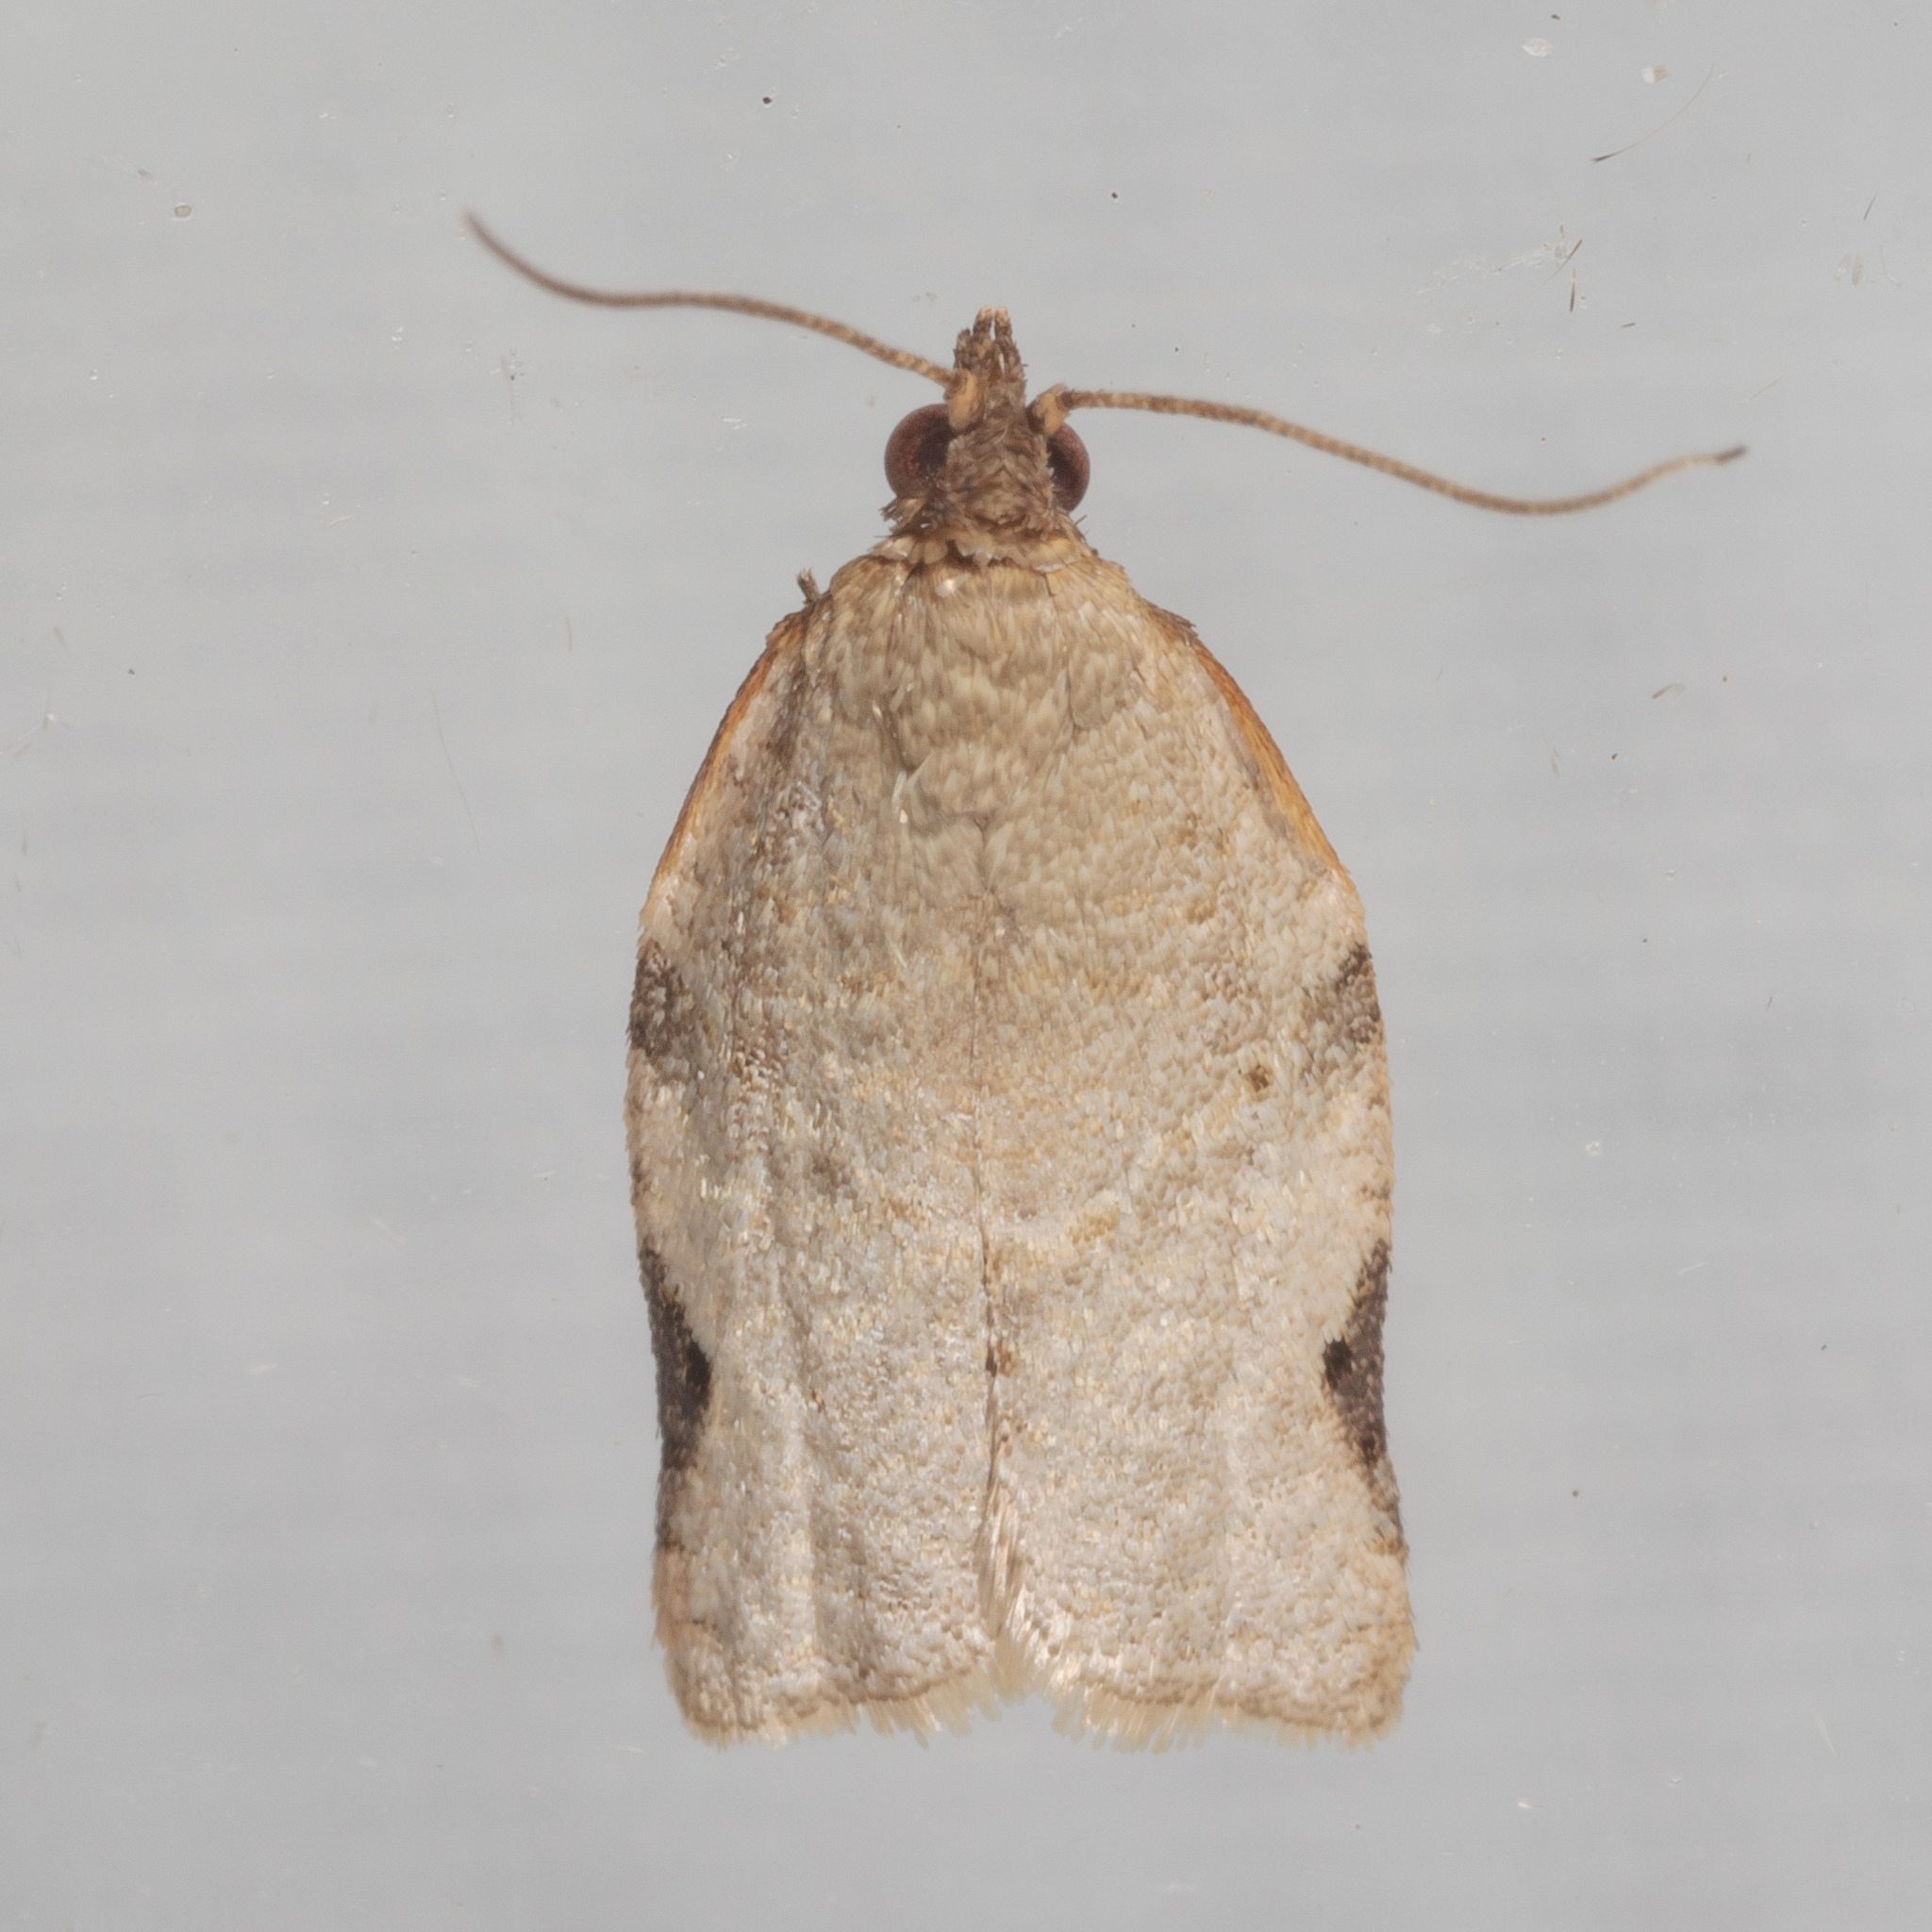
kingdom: Animalia
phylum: Arthropoda
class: Insecta
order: Lepidoptera
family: Tortricidae
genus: Clepsis
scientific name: Clepsis virescana
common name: Greenish apple moth
